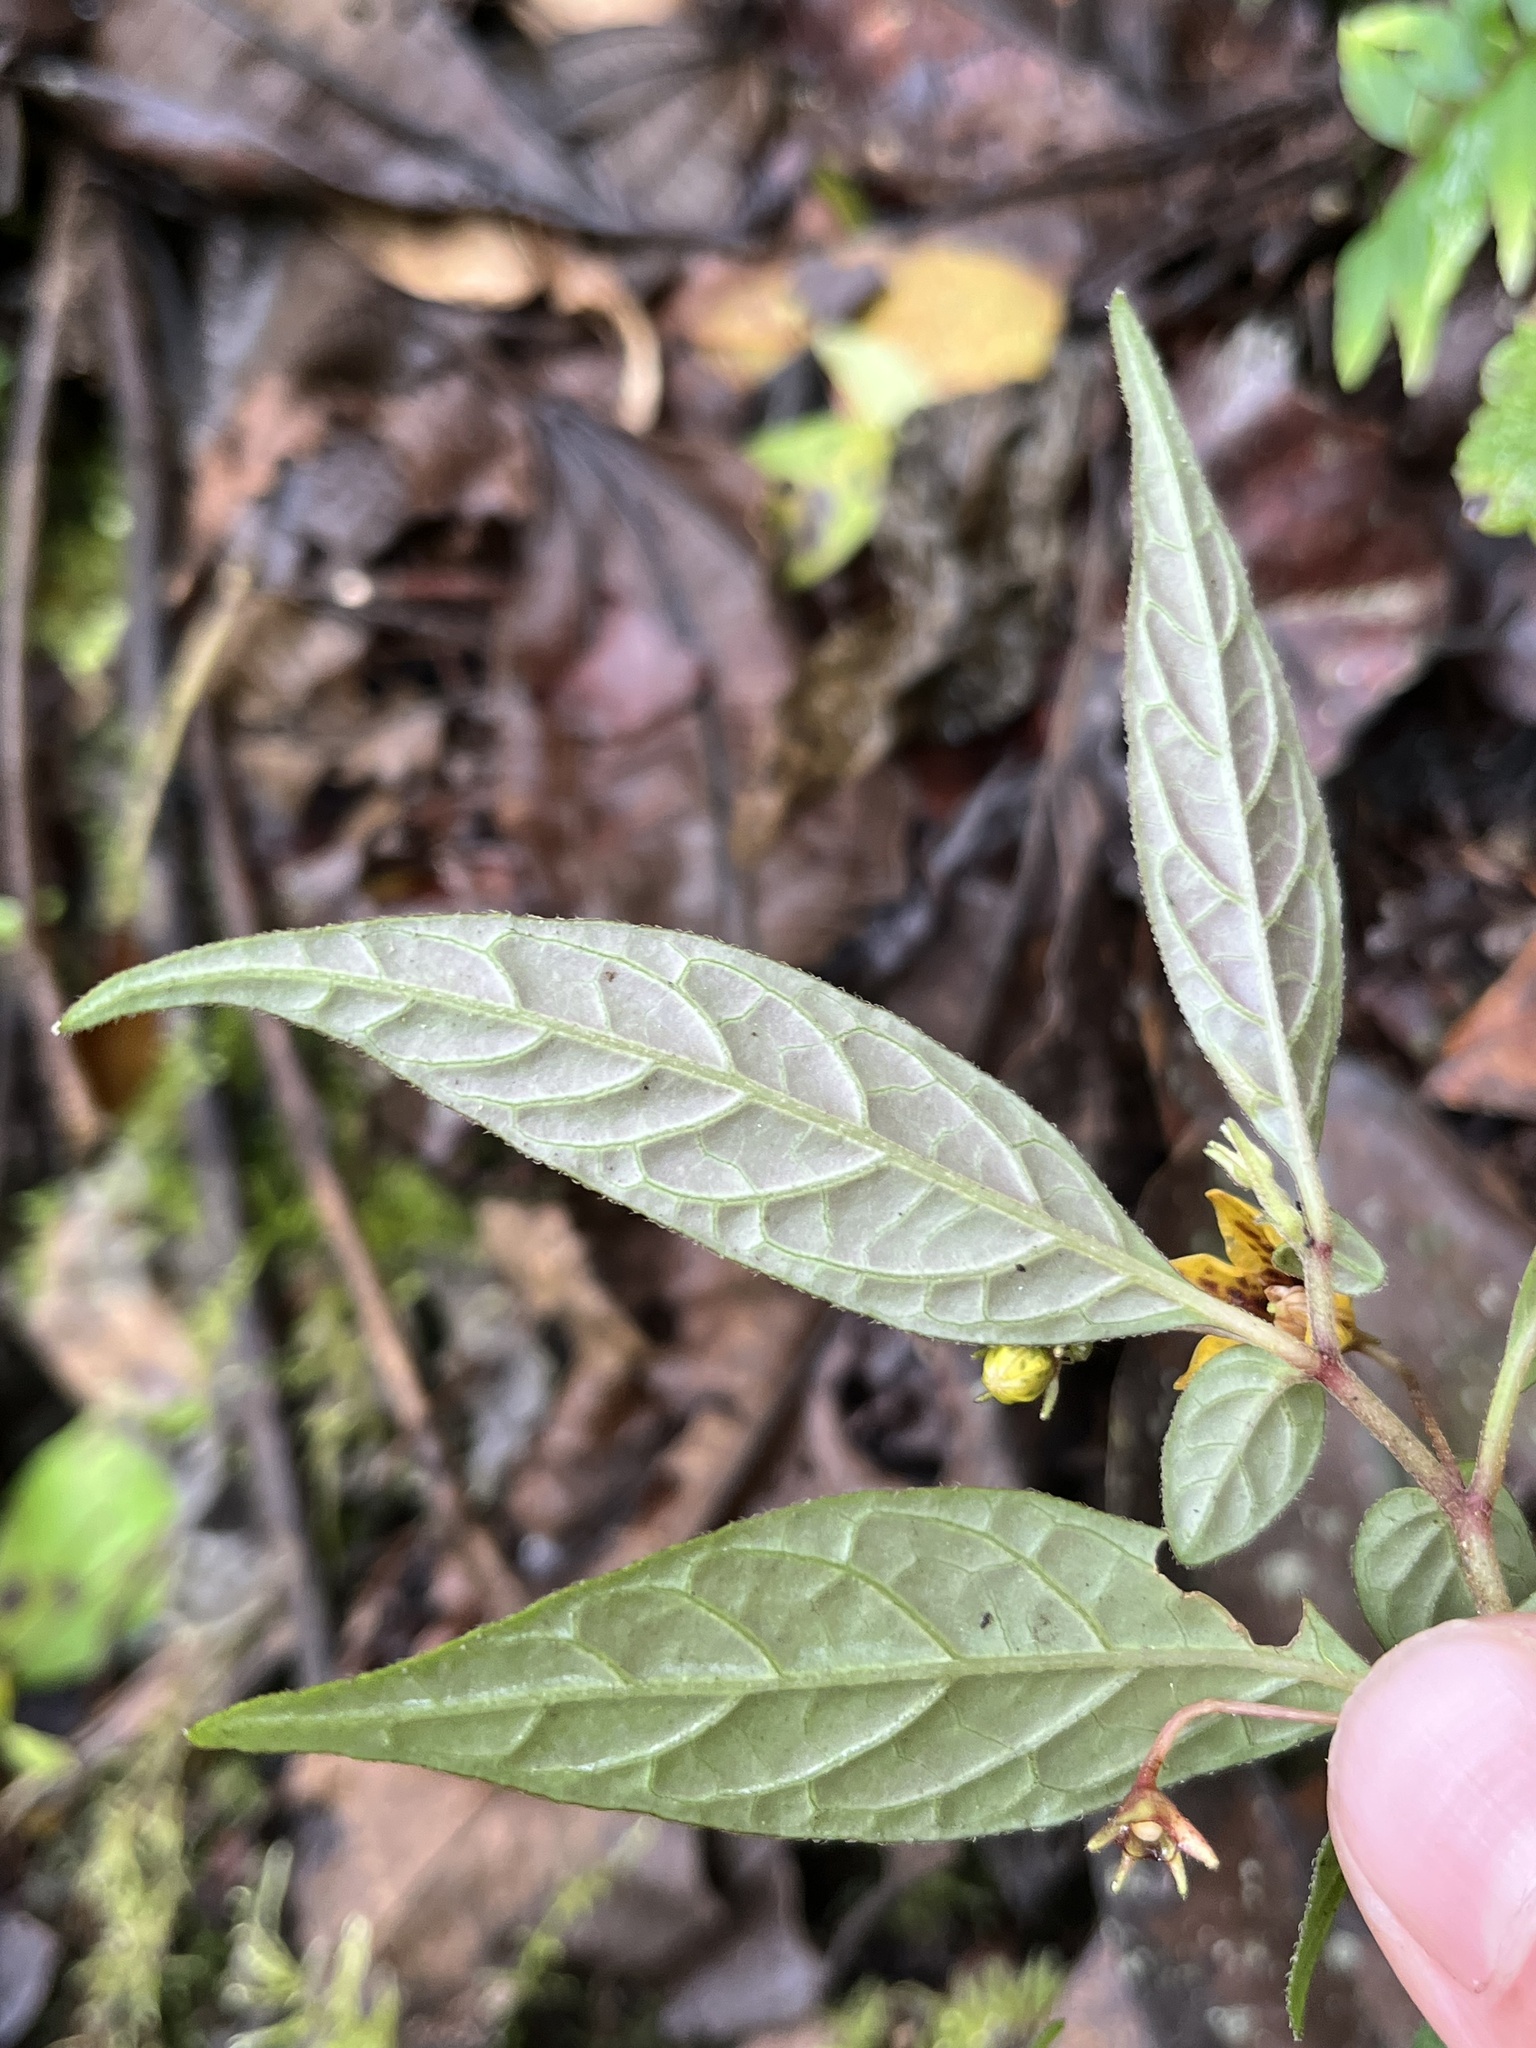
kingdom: Plantae
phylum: Tracheophyta
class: Magnoliopsida
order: Solanales
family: Solanaceae
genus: Capsicum
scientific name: Capsicum geminifolium
